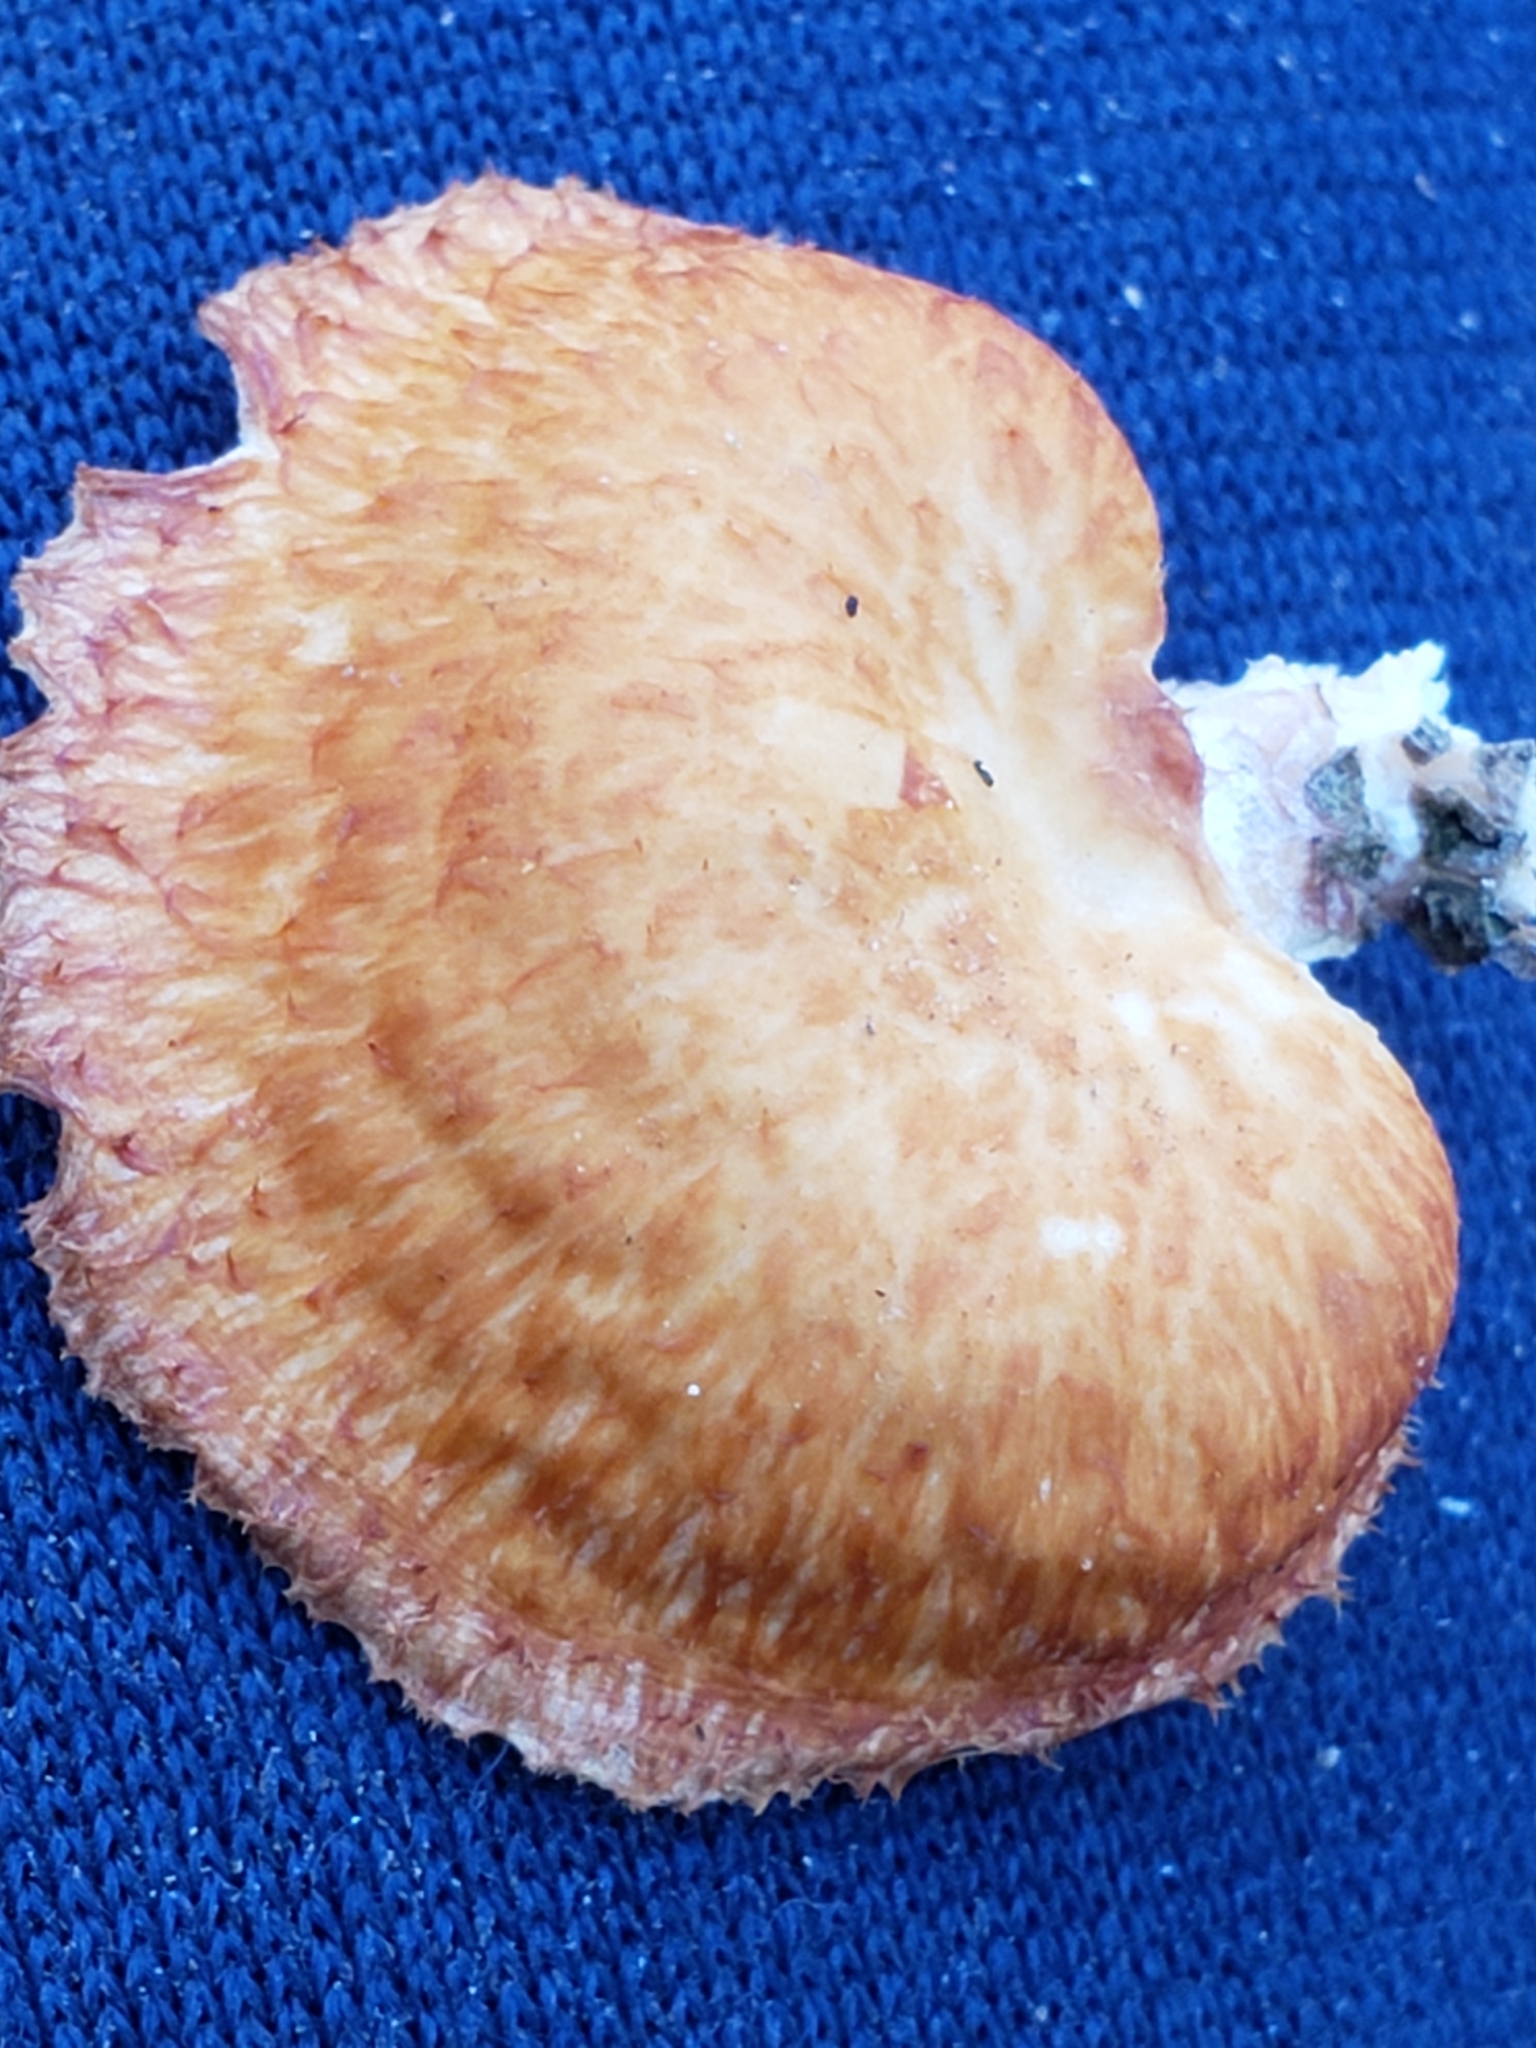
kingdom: Fungi
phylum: Basidiomycota
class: Agaricomycetes
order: Polyporales
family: Polyporaceae
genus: Neofavolus
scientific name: Neofavolus alveolaris
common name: Hexagonal-pored polypore
